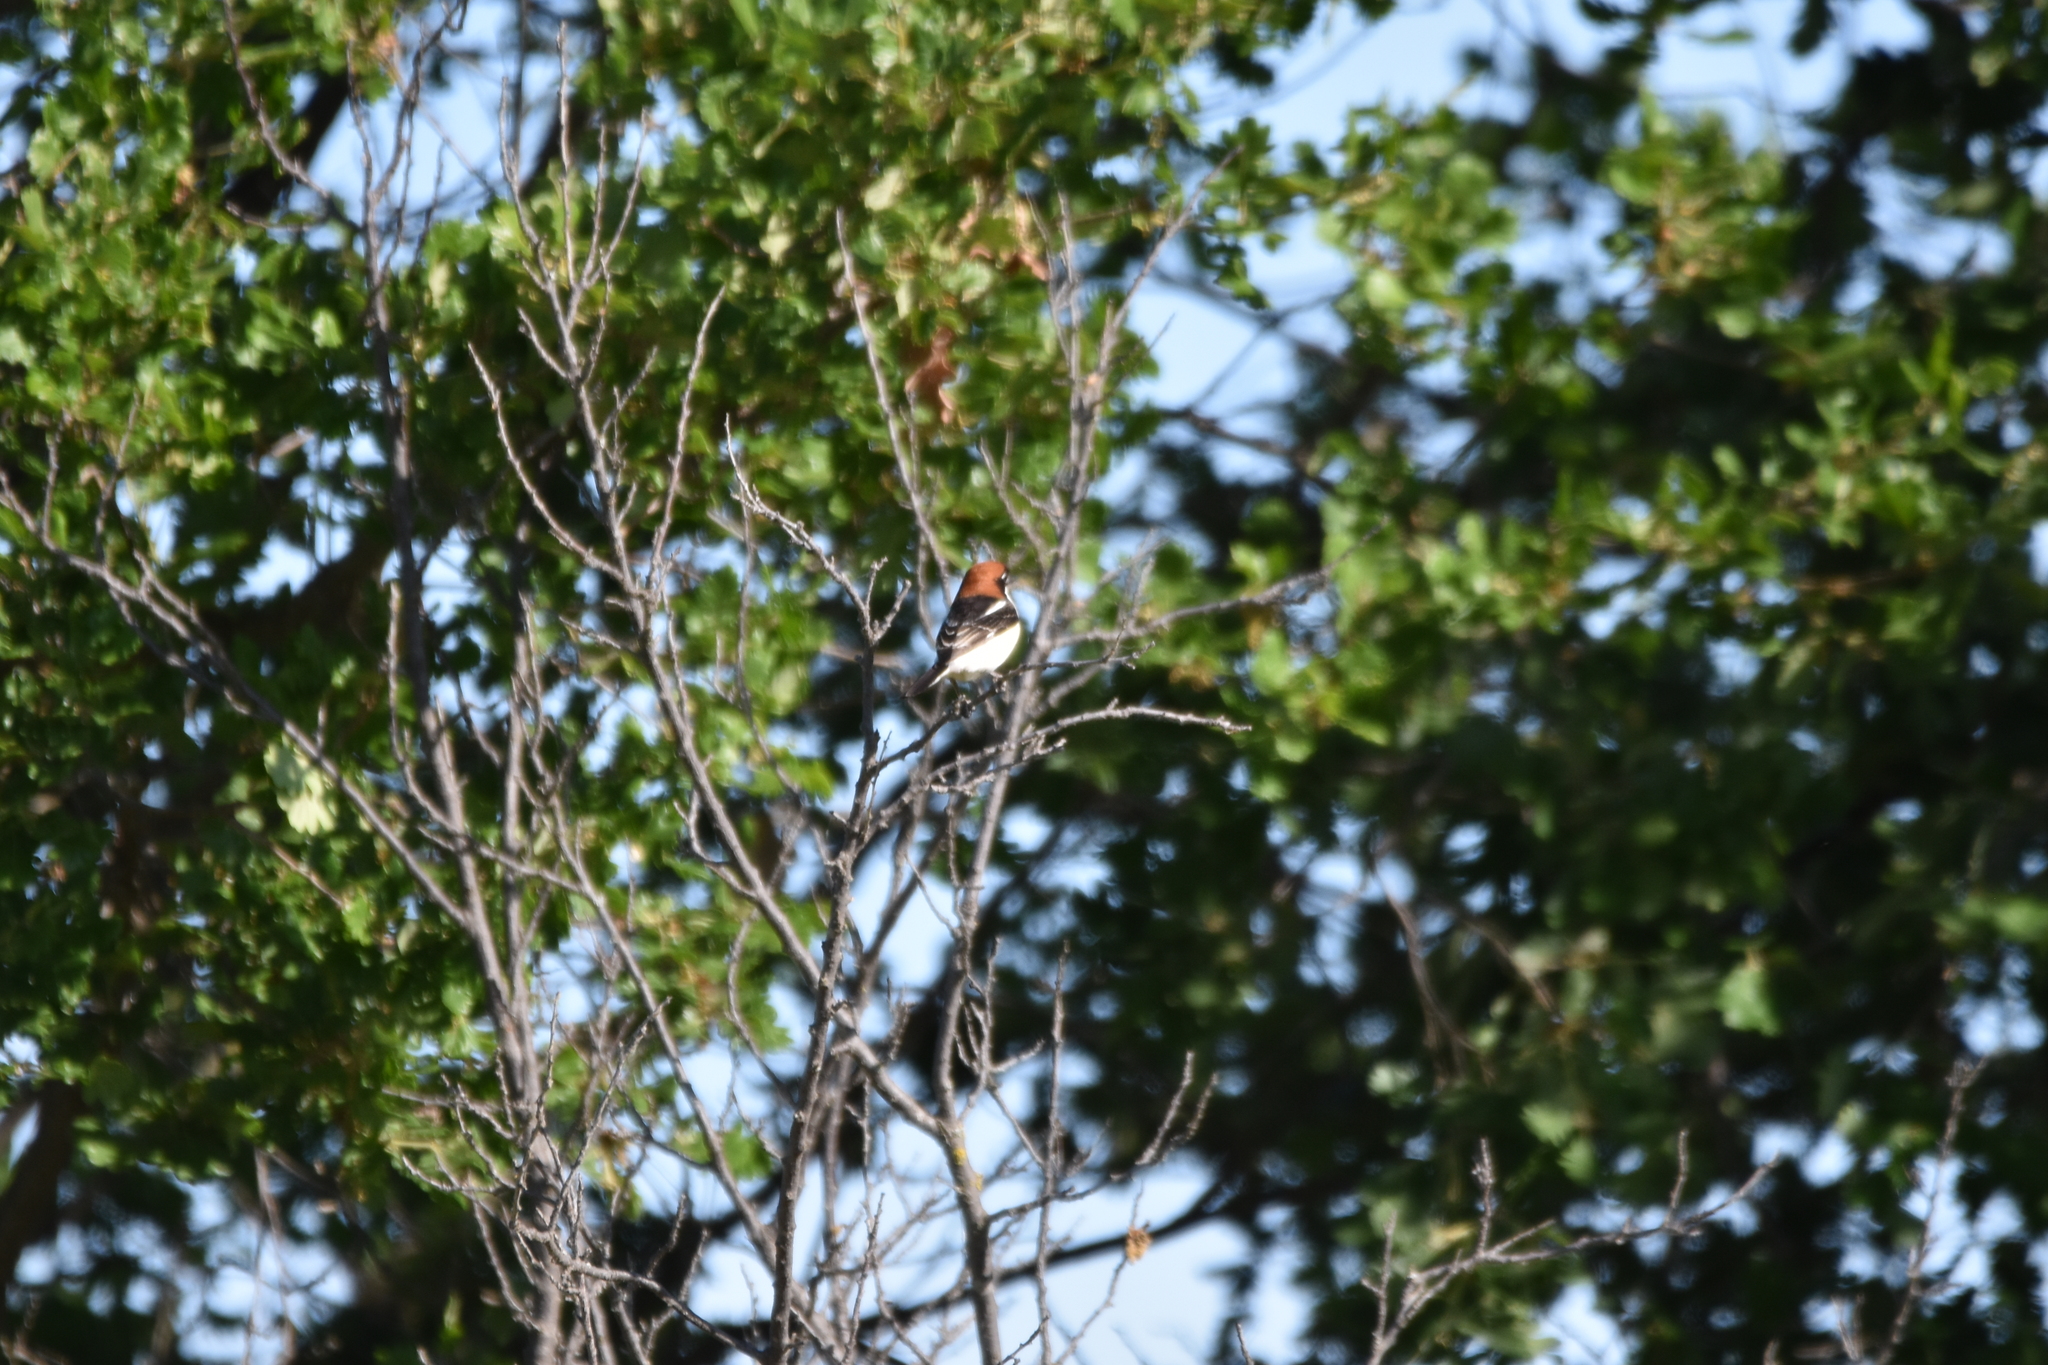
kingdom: Animalia
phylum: Chordata
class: Aves
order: Passeriformes
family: Laniidae
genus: Lanius
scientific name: Lanius senator
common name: Woodchat shrike
